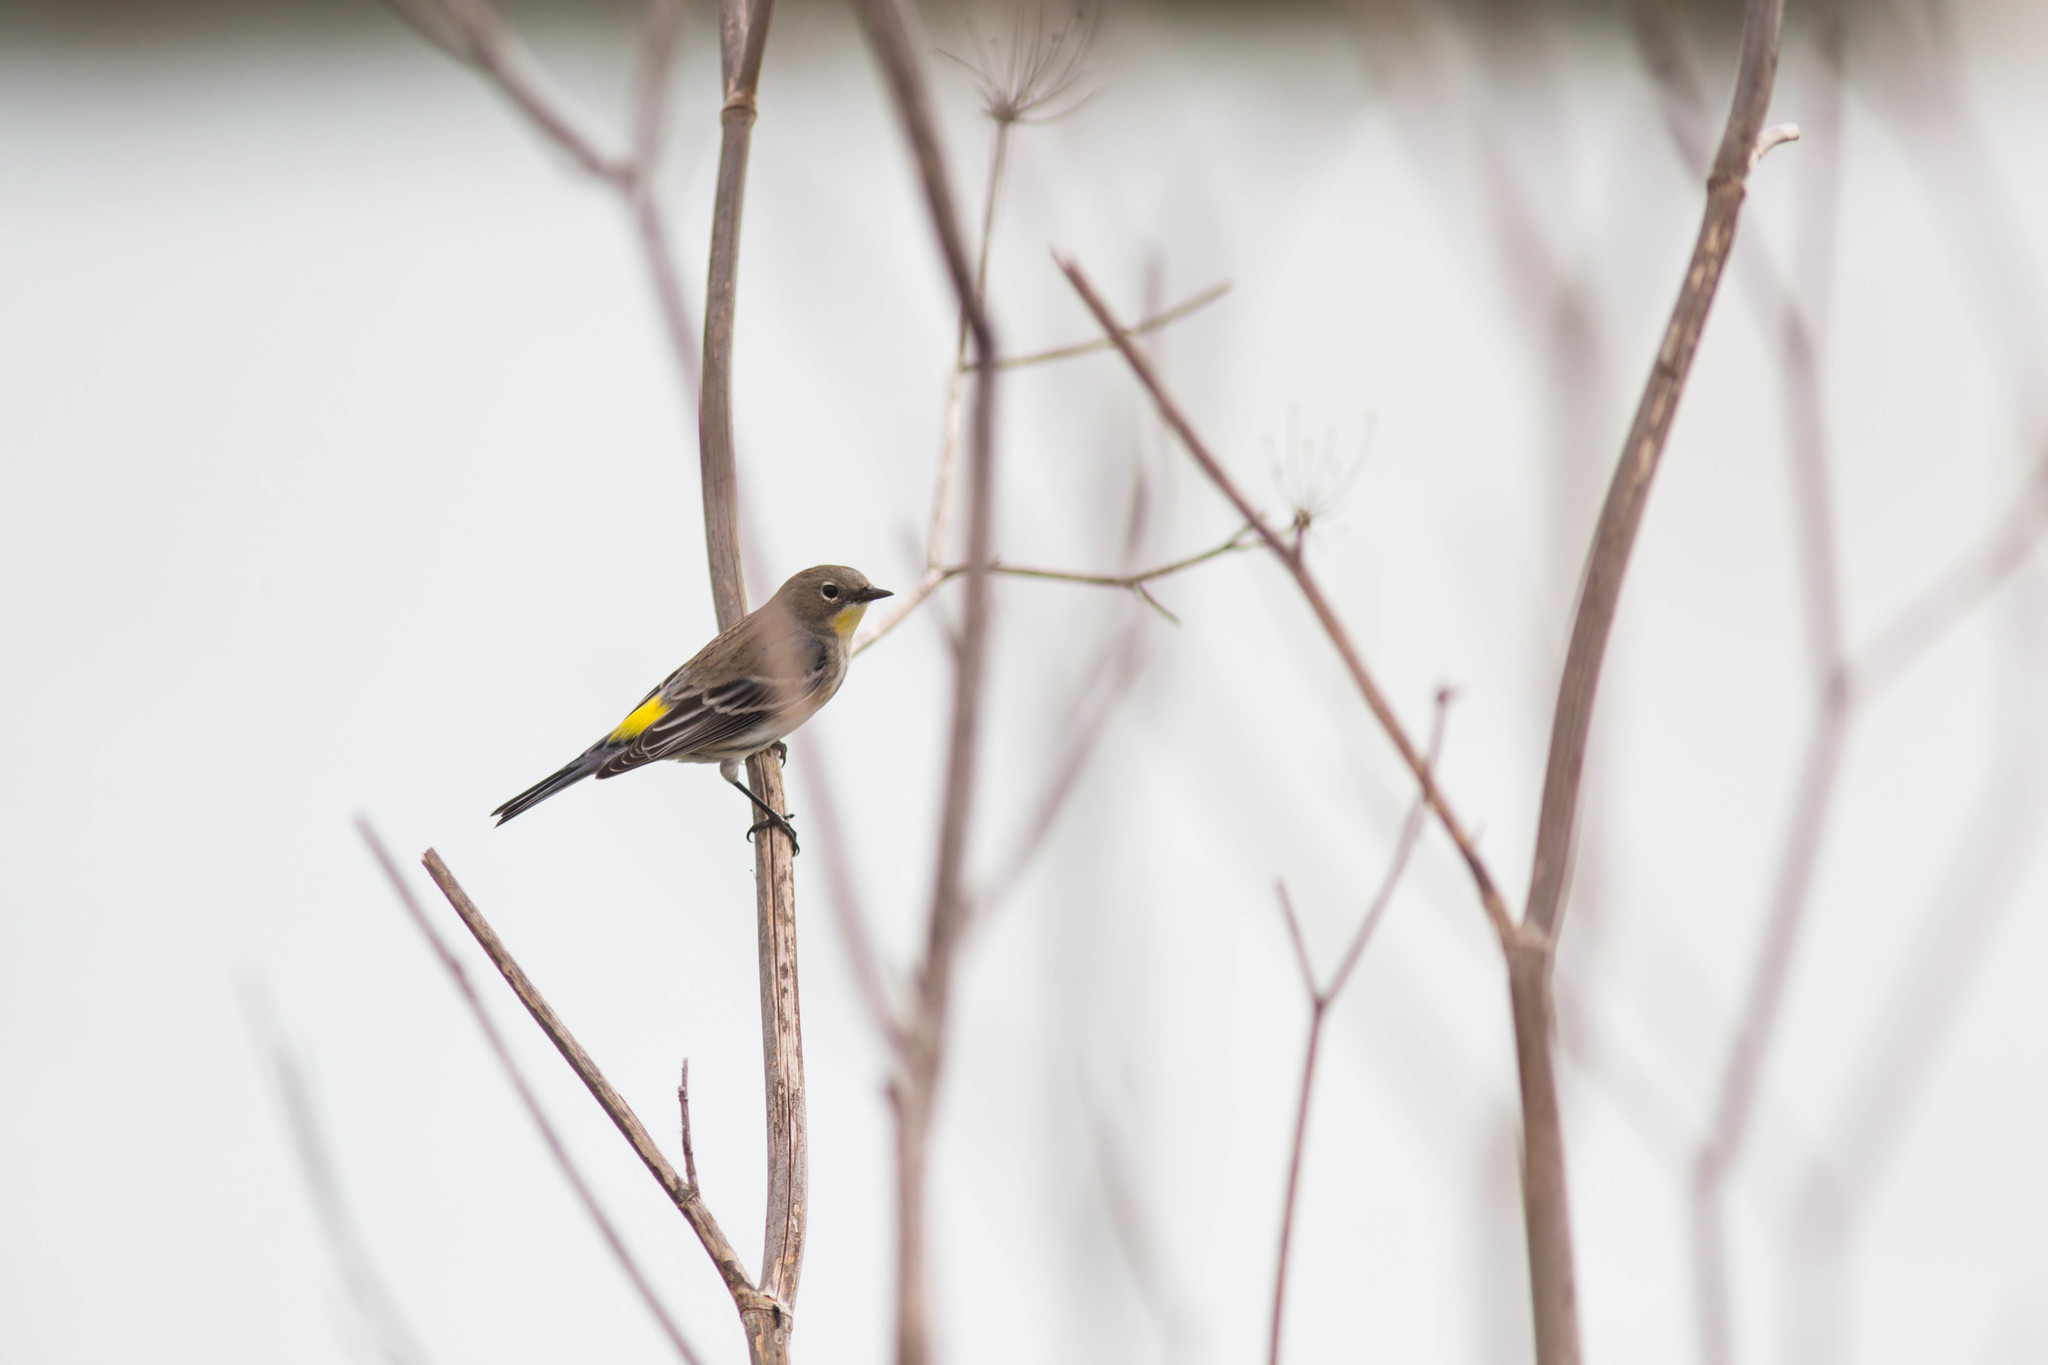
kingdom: Animalia
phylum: Chordata
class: Aves
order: Passeriformes
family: Parulidae
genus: Setophaga
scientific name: Setophaga coronata
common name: Myrtle warbler
